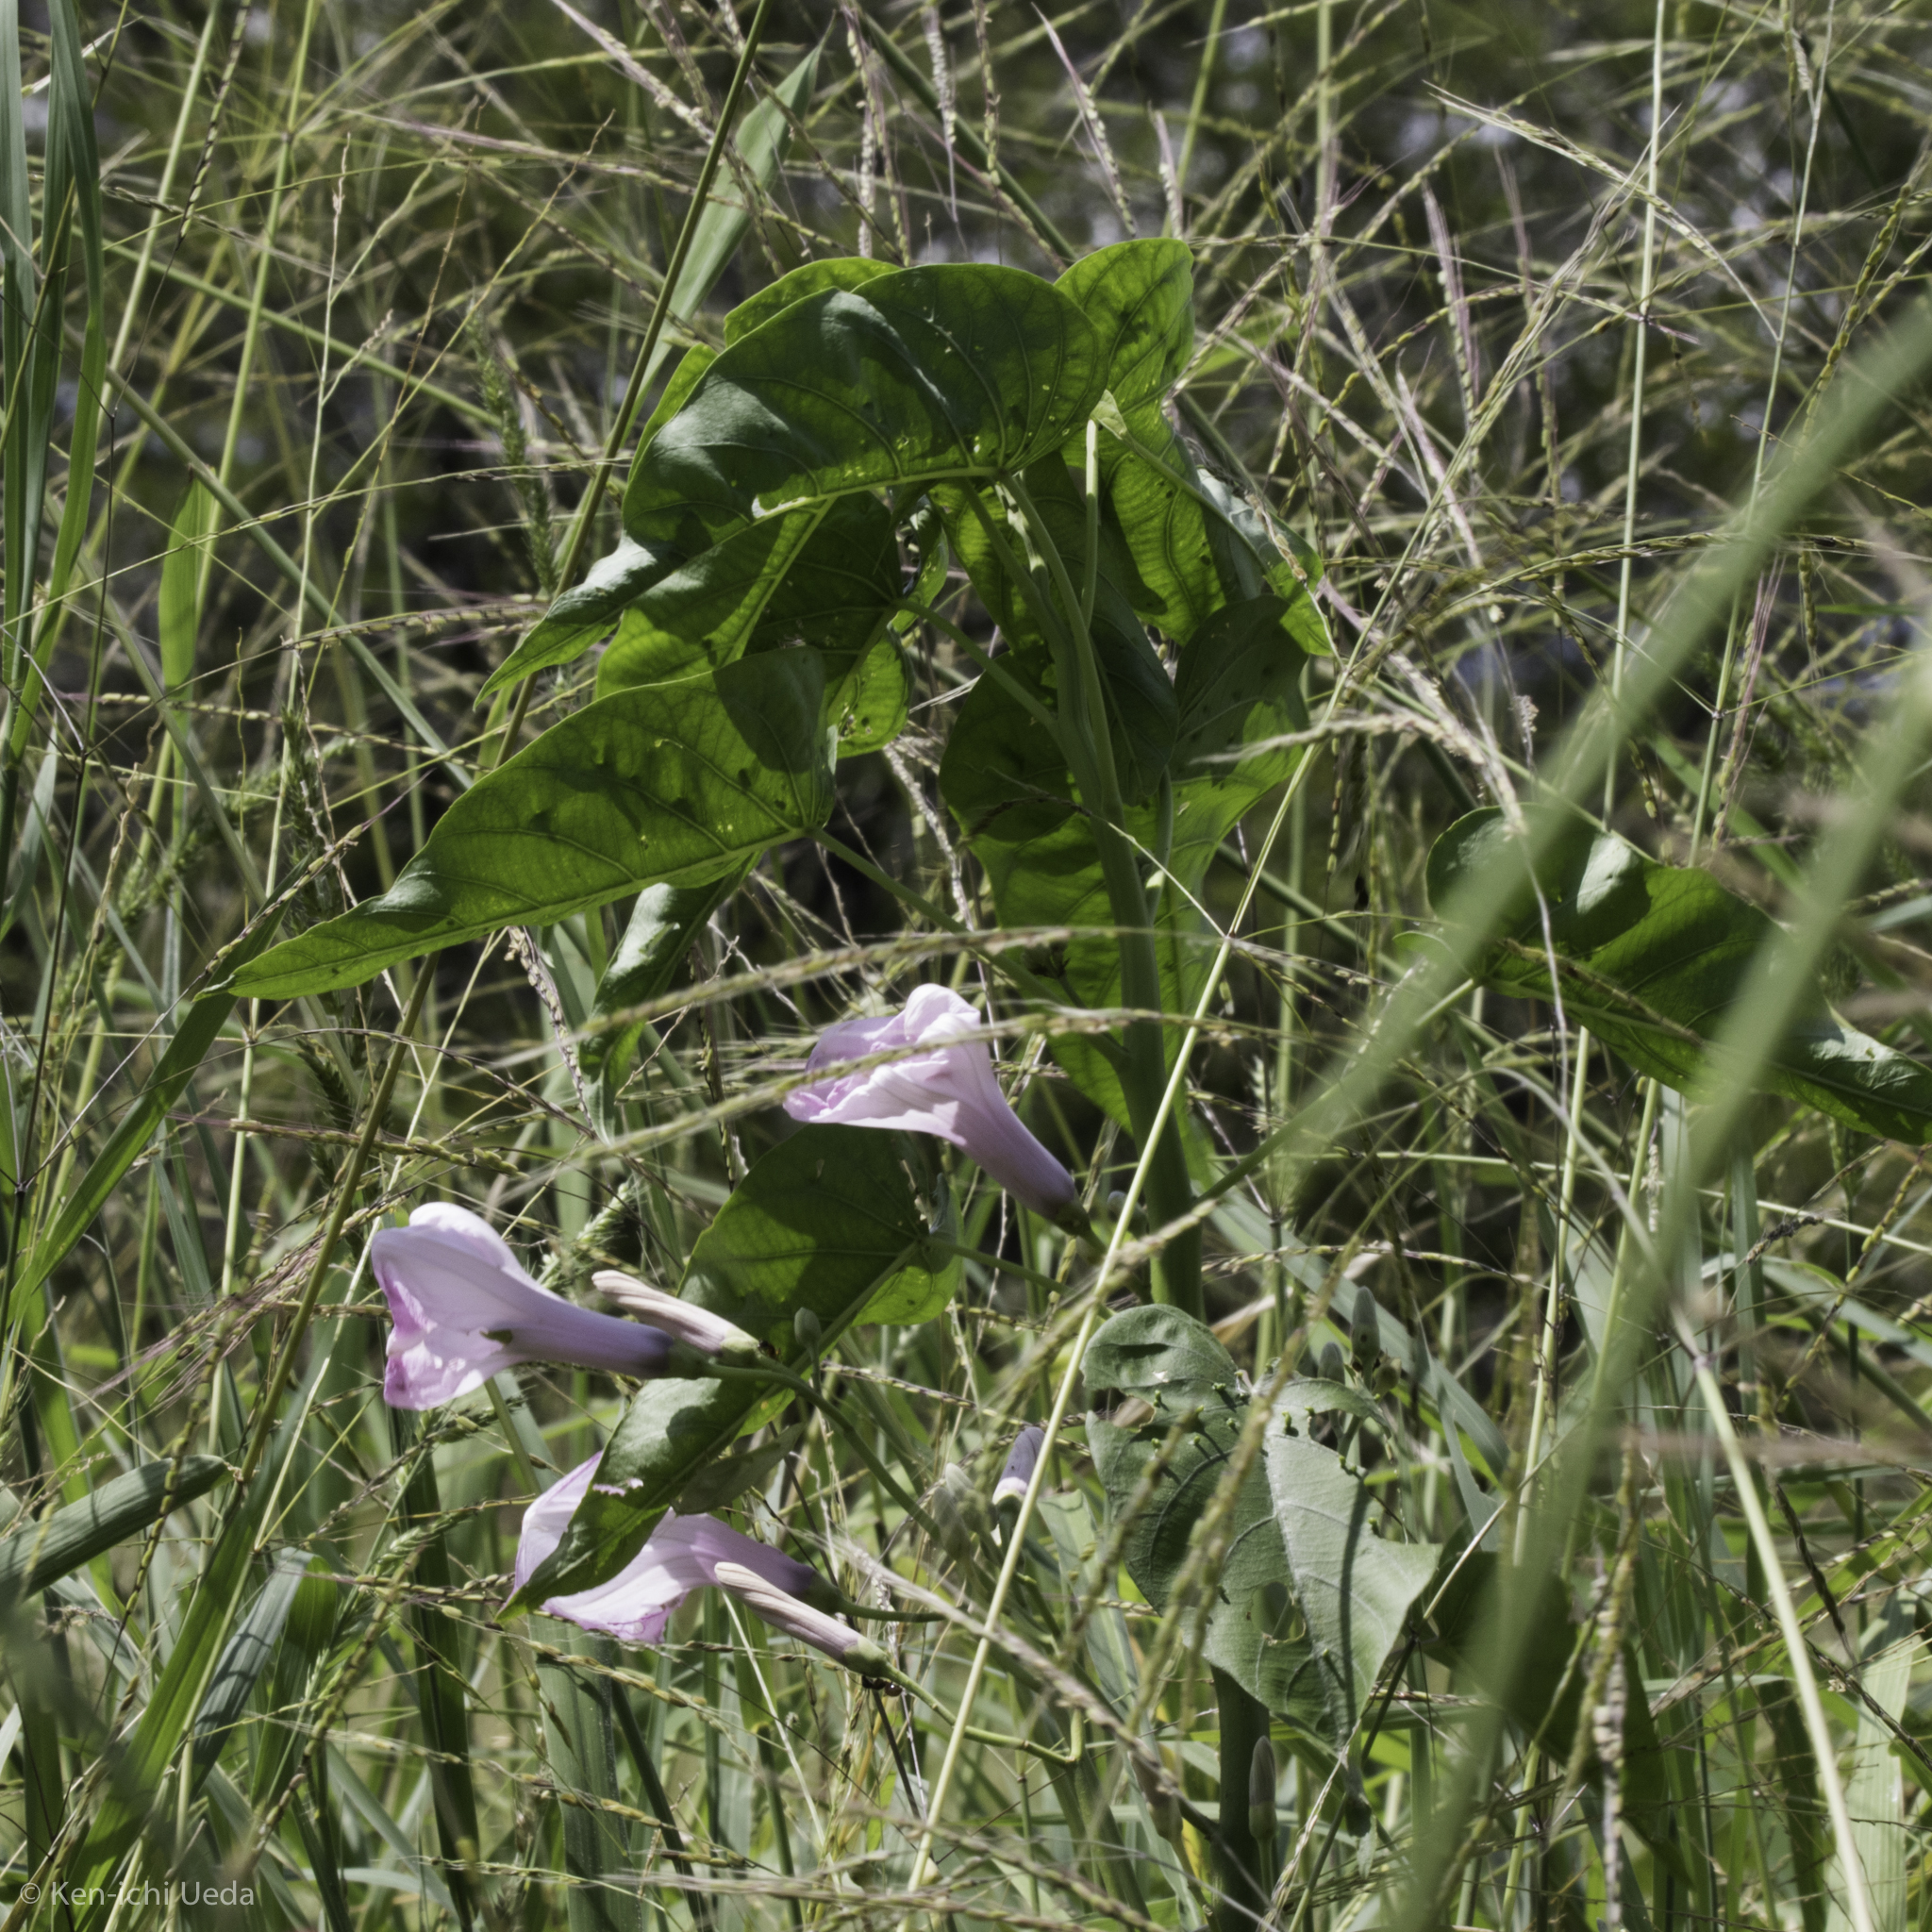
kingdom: Plantae
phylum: Tracheophyta
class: Magnoliopsida
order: Solanales
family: Convolvulaceae
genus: Ipomoea
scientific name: Ipomoea carnea
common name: Morning-glory
